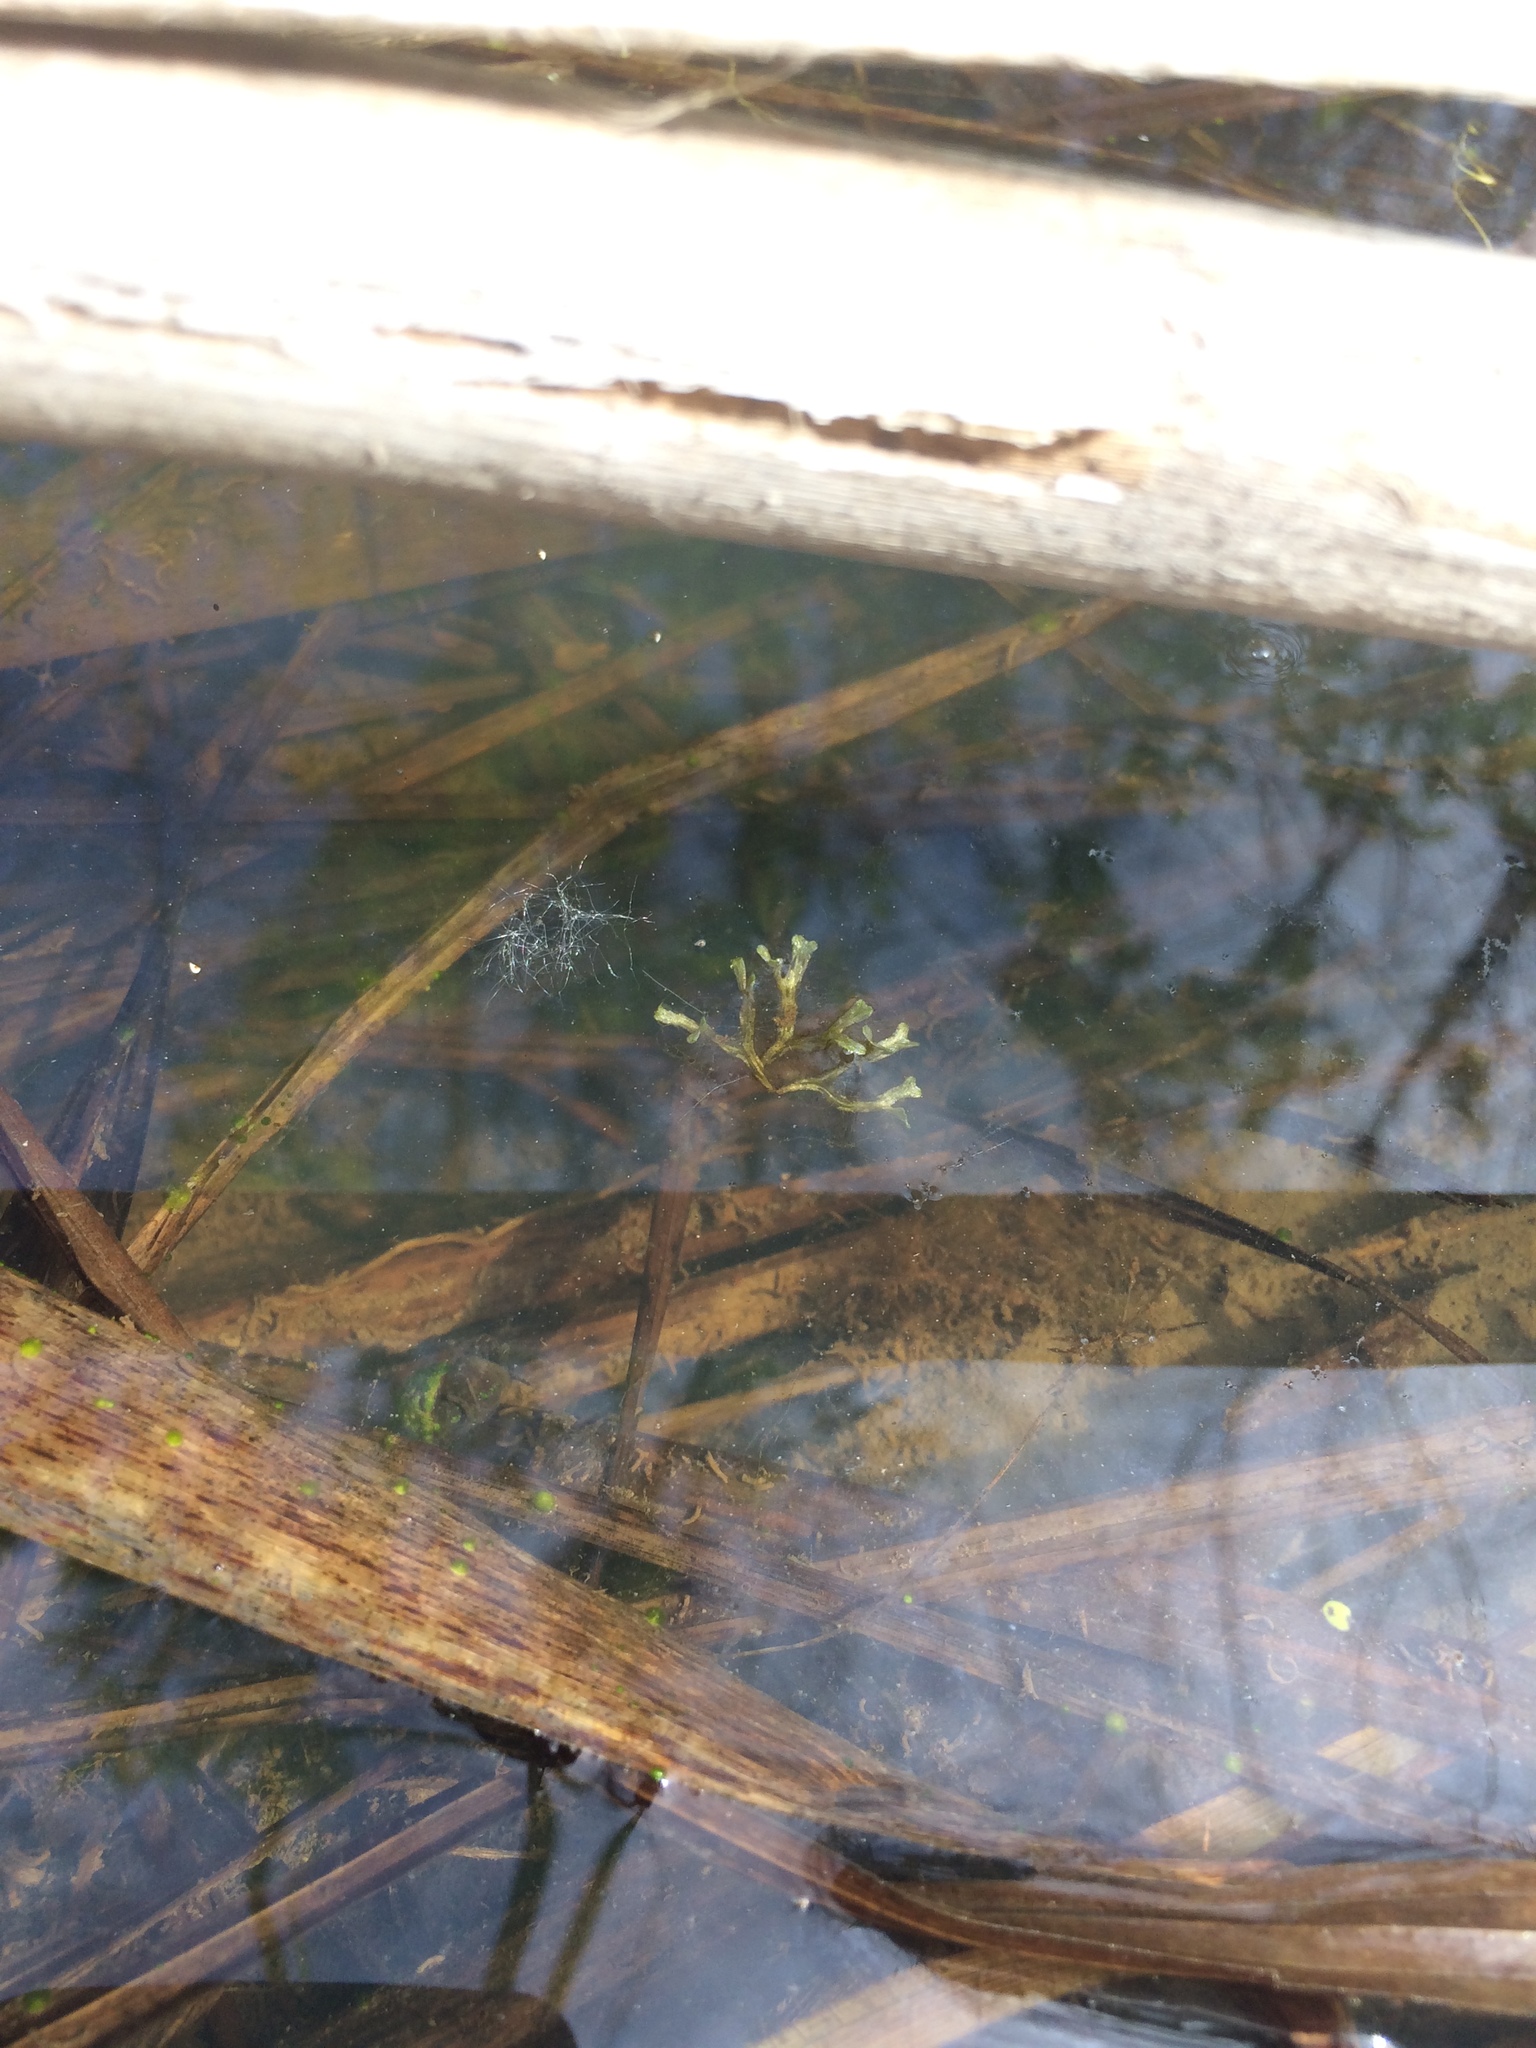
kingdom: Plantae
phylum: Marchantiophyta
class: Marchantiopsida
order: Marchantiales
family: Ricciaceae
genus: Riccia
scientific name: Riccia fluitans
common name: Floating crystalwort
